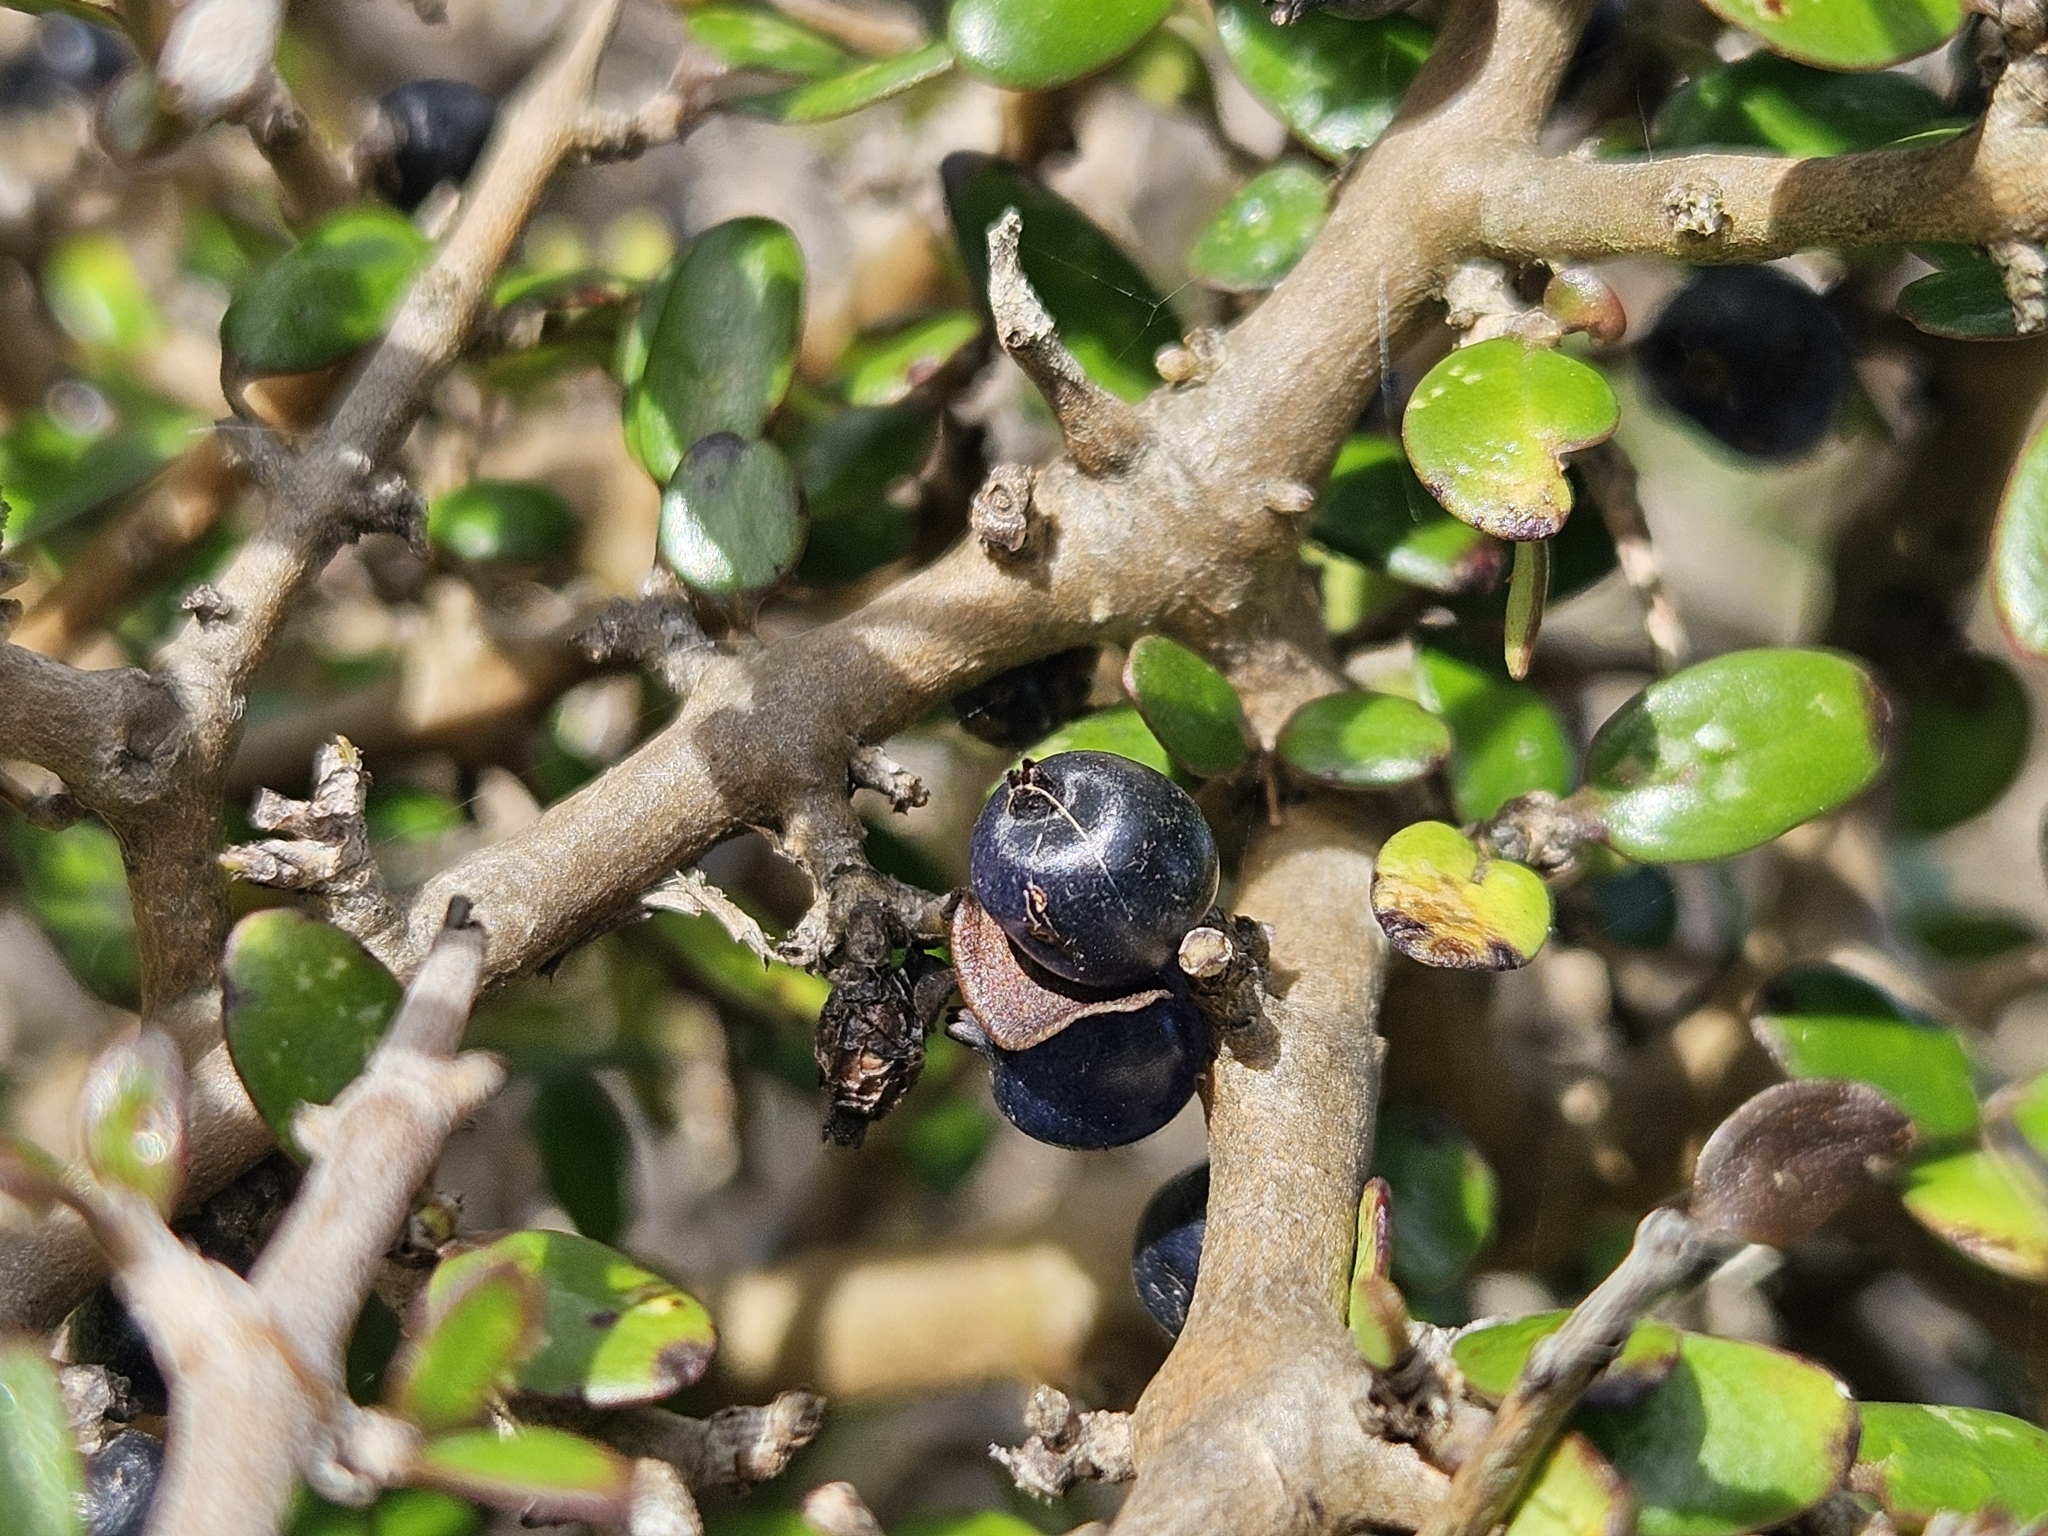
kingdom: Plantae
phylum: Tracheophyta
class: Magnoliopsida
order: Gentianales
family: Rubiaceae
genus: Coprosma
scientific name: Coprosma propinqua
